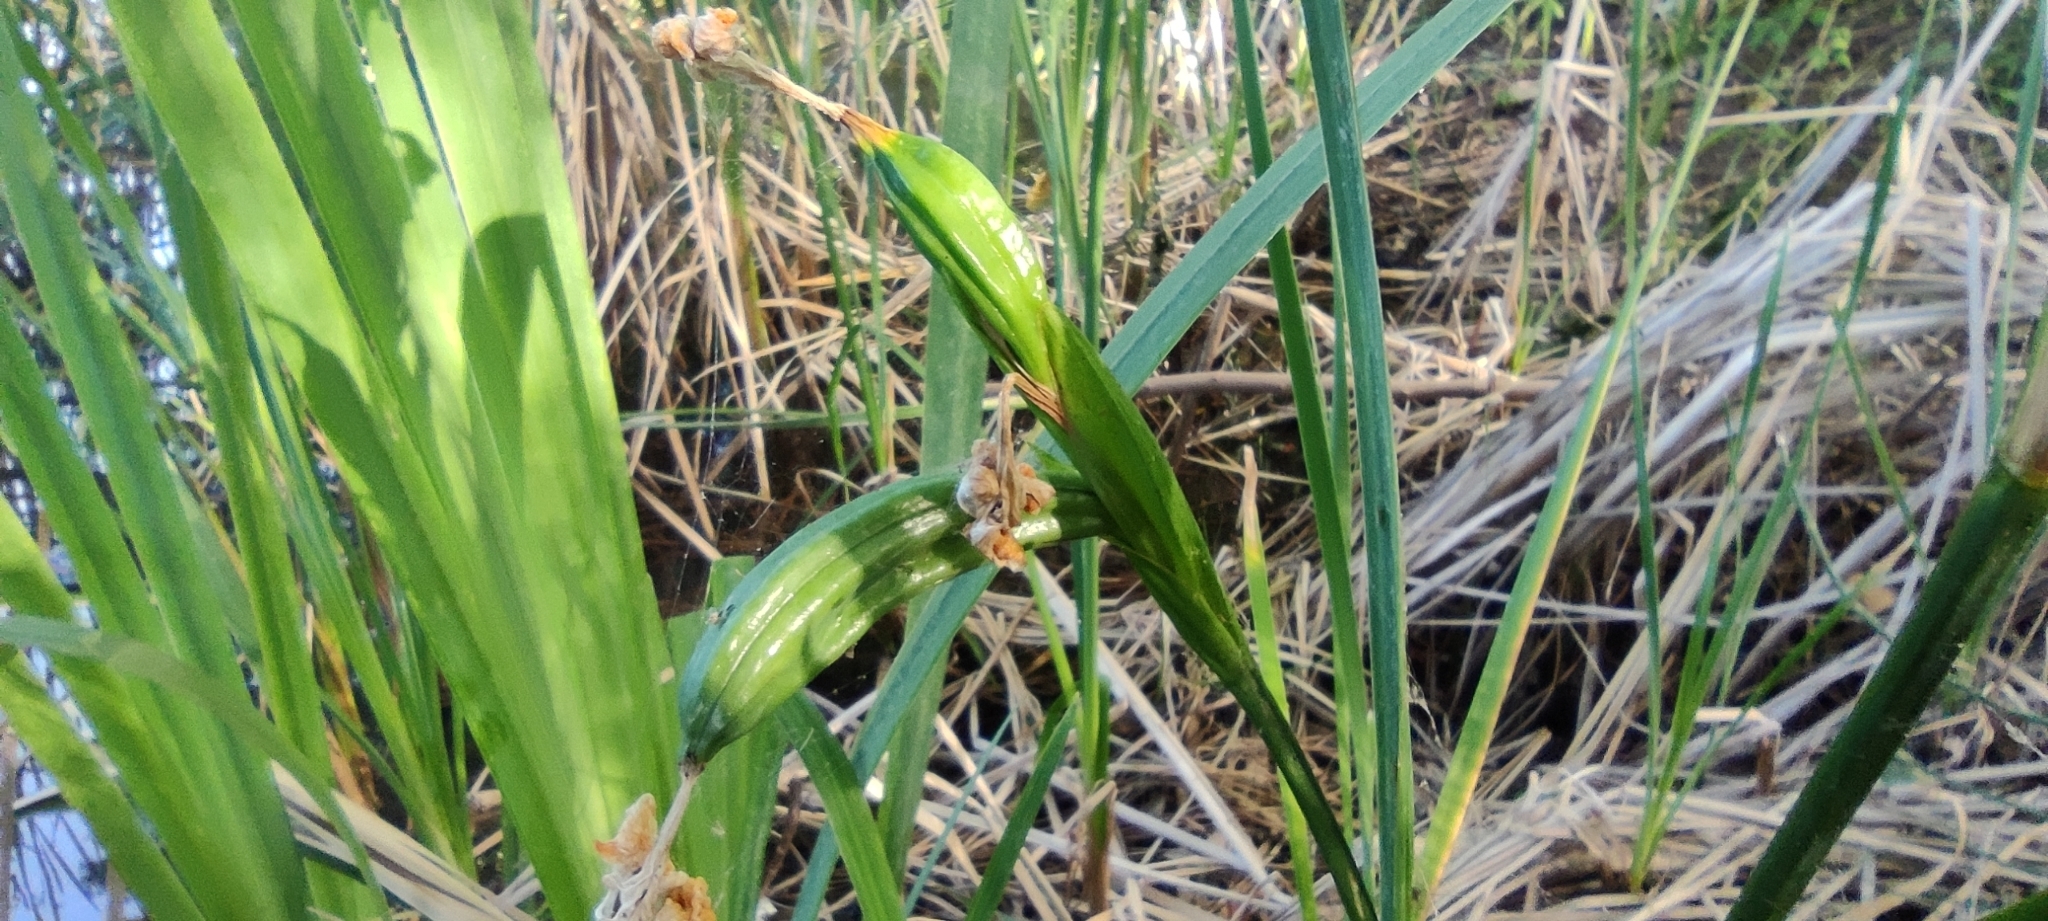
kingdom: Plantae
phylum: Tracheophyta
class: Liliopsida
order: Asparagales
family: Iridaceae
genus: Iris
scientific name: Iris pseudacorus
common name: Yellow flag
